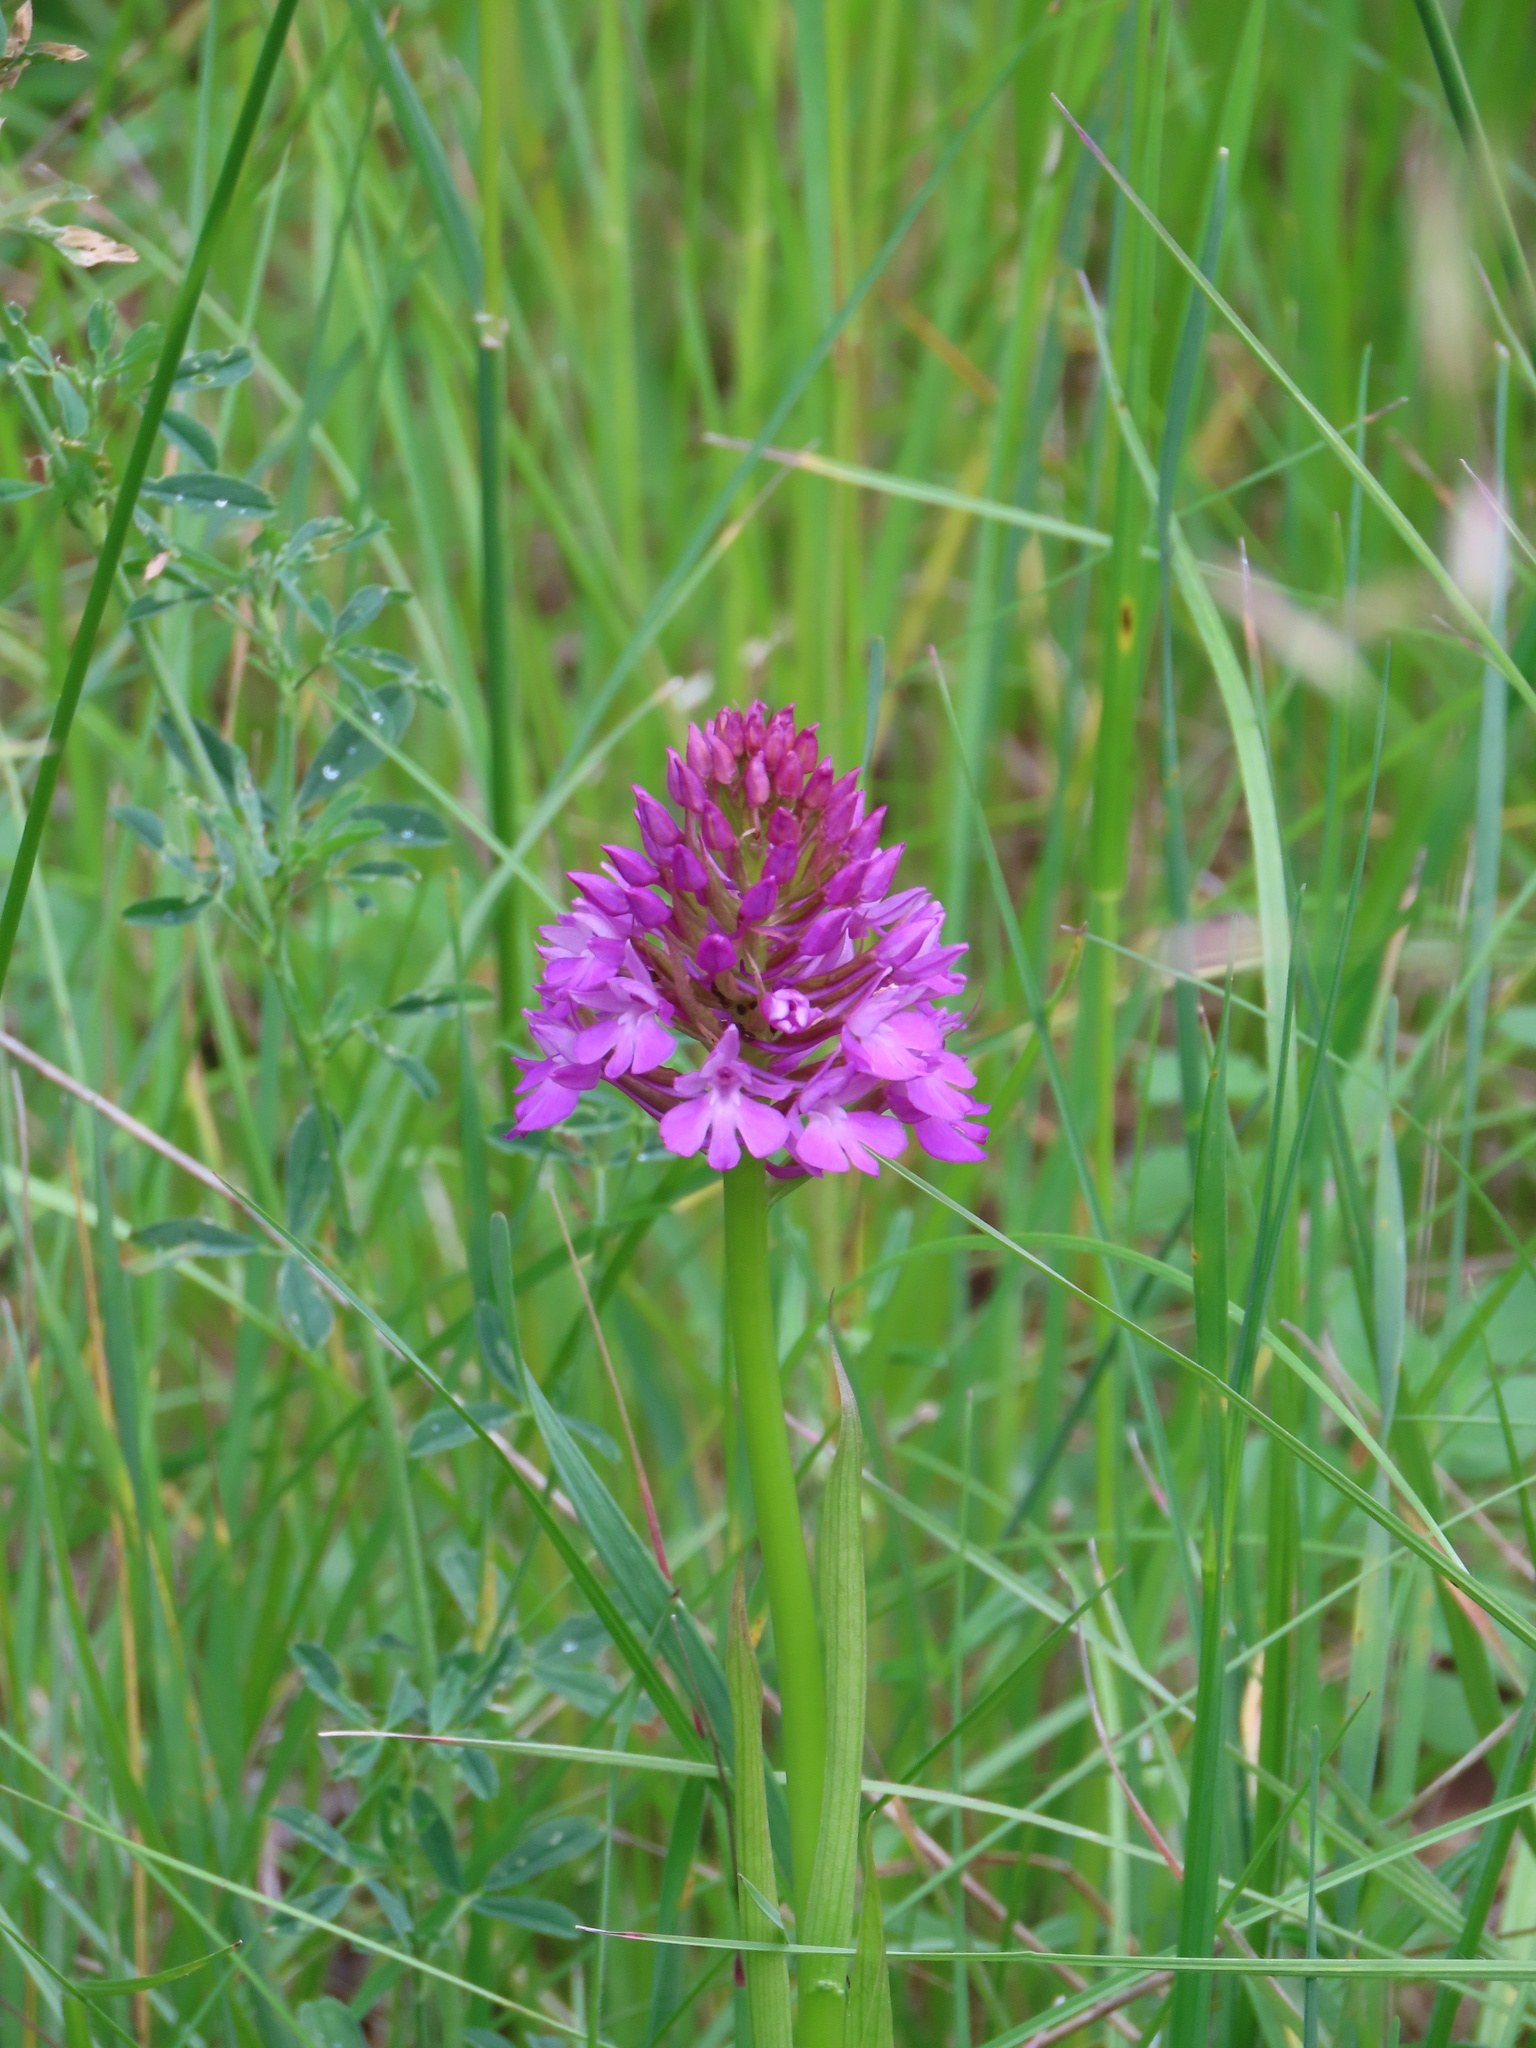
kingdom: Plantae
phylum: Tracheophyta
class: Liliopsida
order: Asparagales
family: Orchidaceae
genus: Anacamptis
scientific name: Anacamptis pyramidalis
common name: Pyramidal orchid
